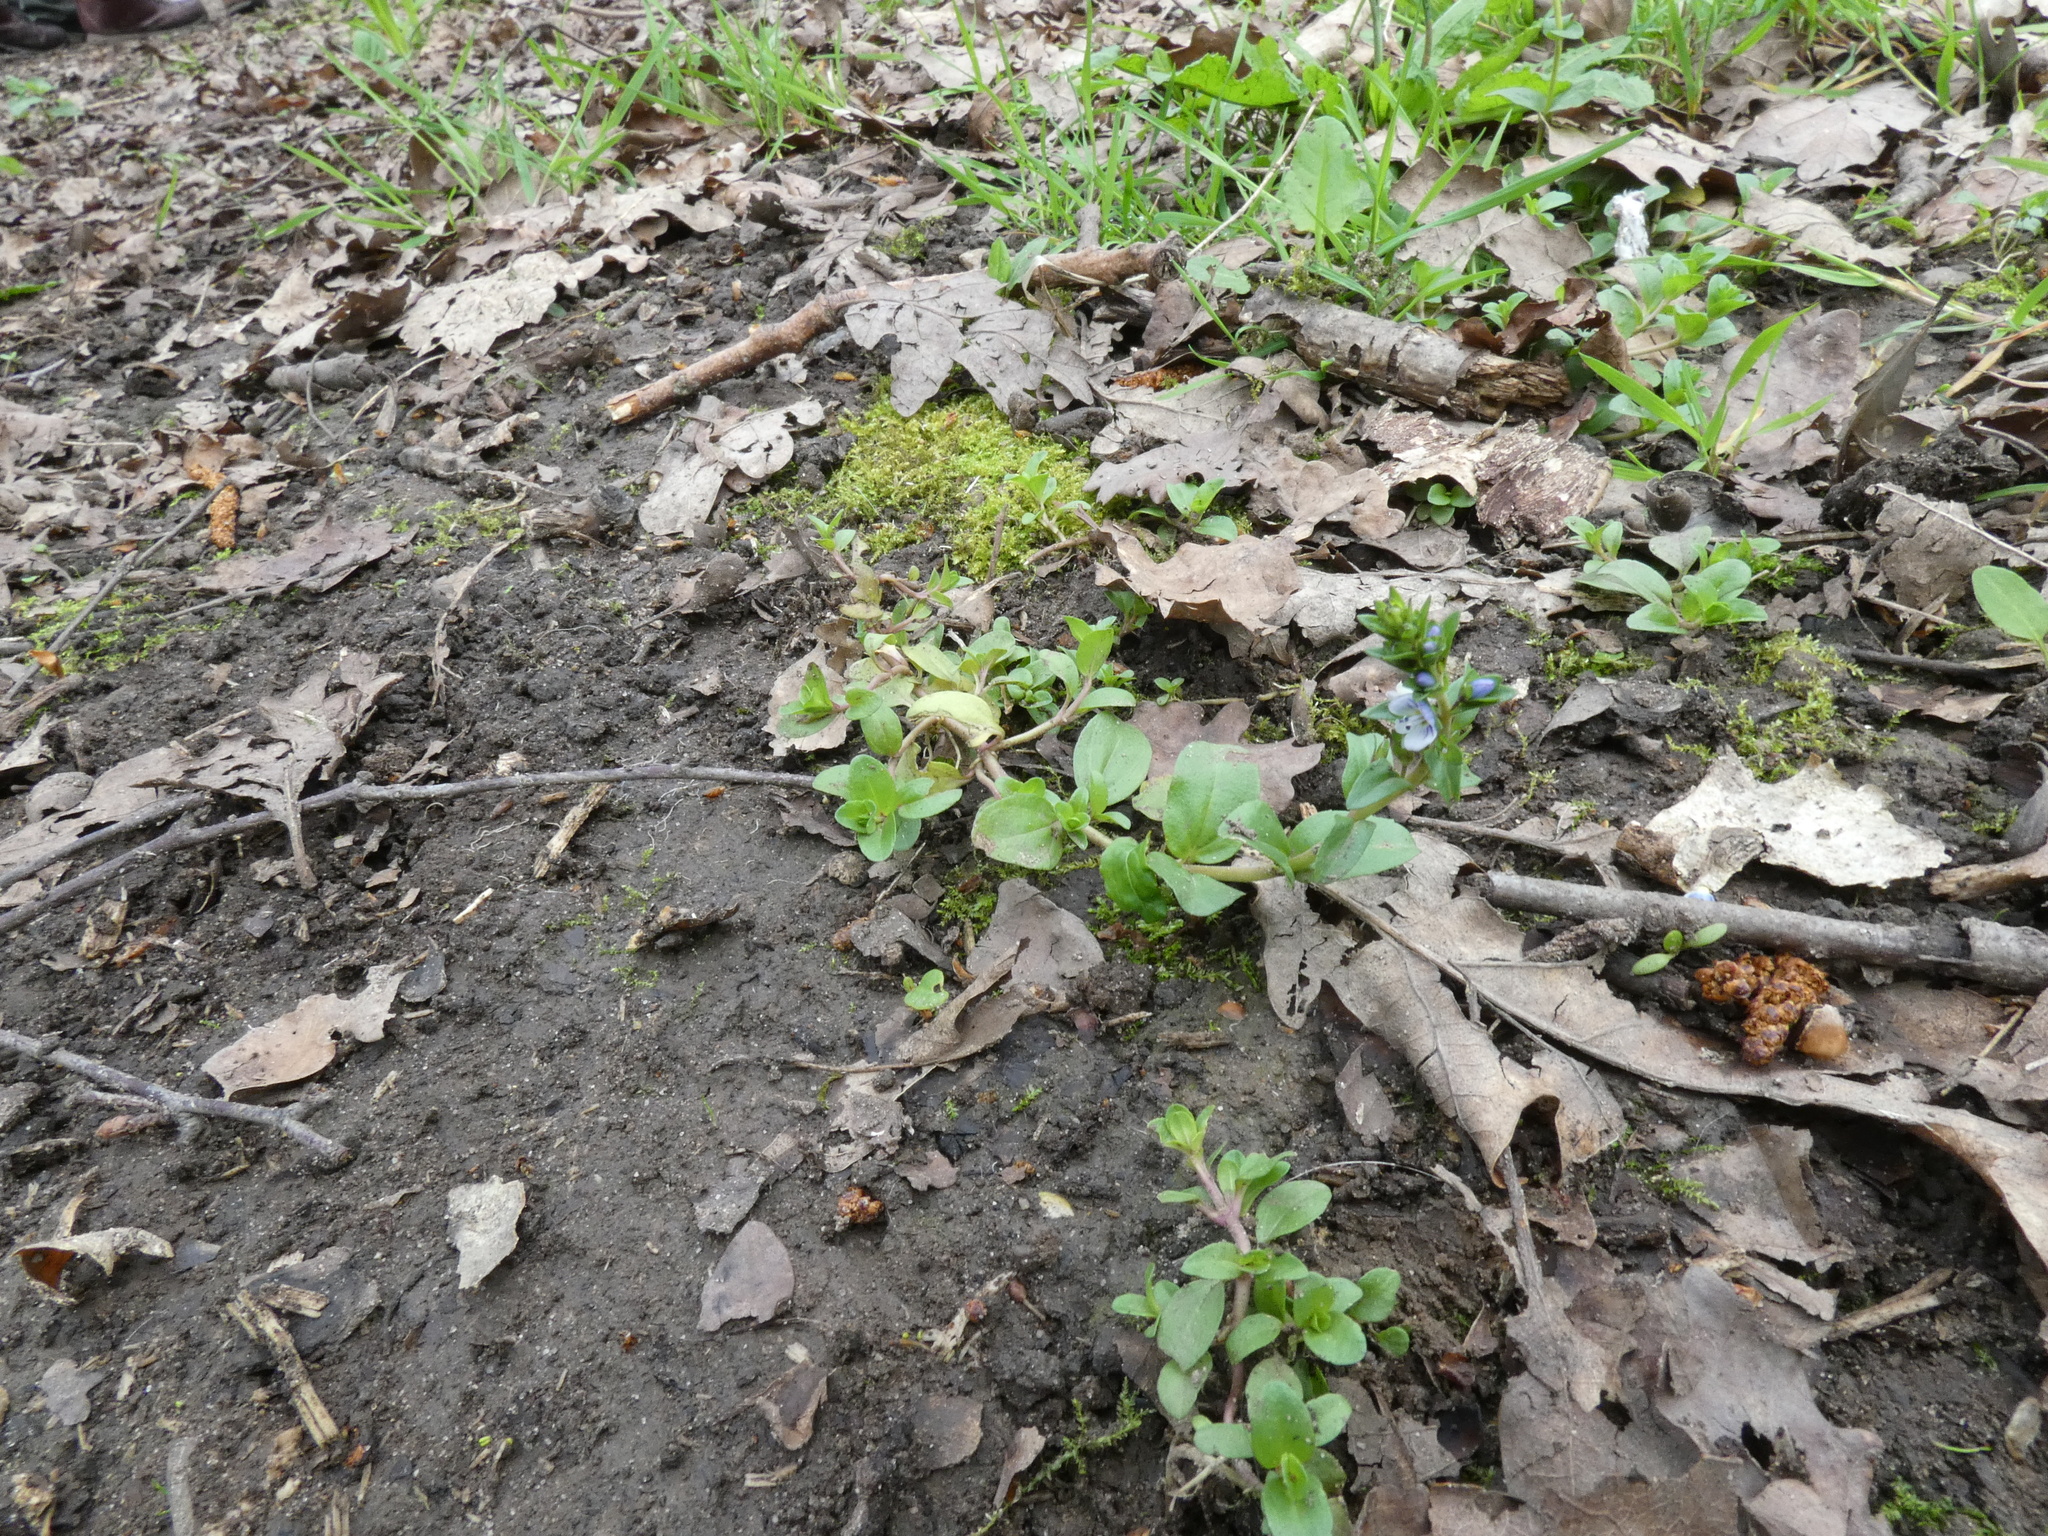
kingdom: Plantae
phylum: Tracheophyta
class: Magnoliopsida
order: Lamiales
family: Plantaginaceae
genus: Veronica
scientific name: Veronica serpyllifolia
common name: Thyme-leaved speedwell
